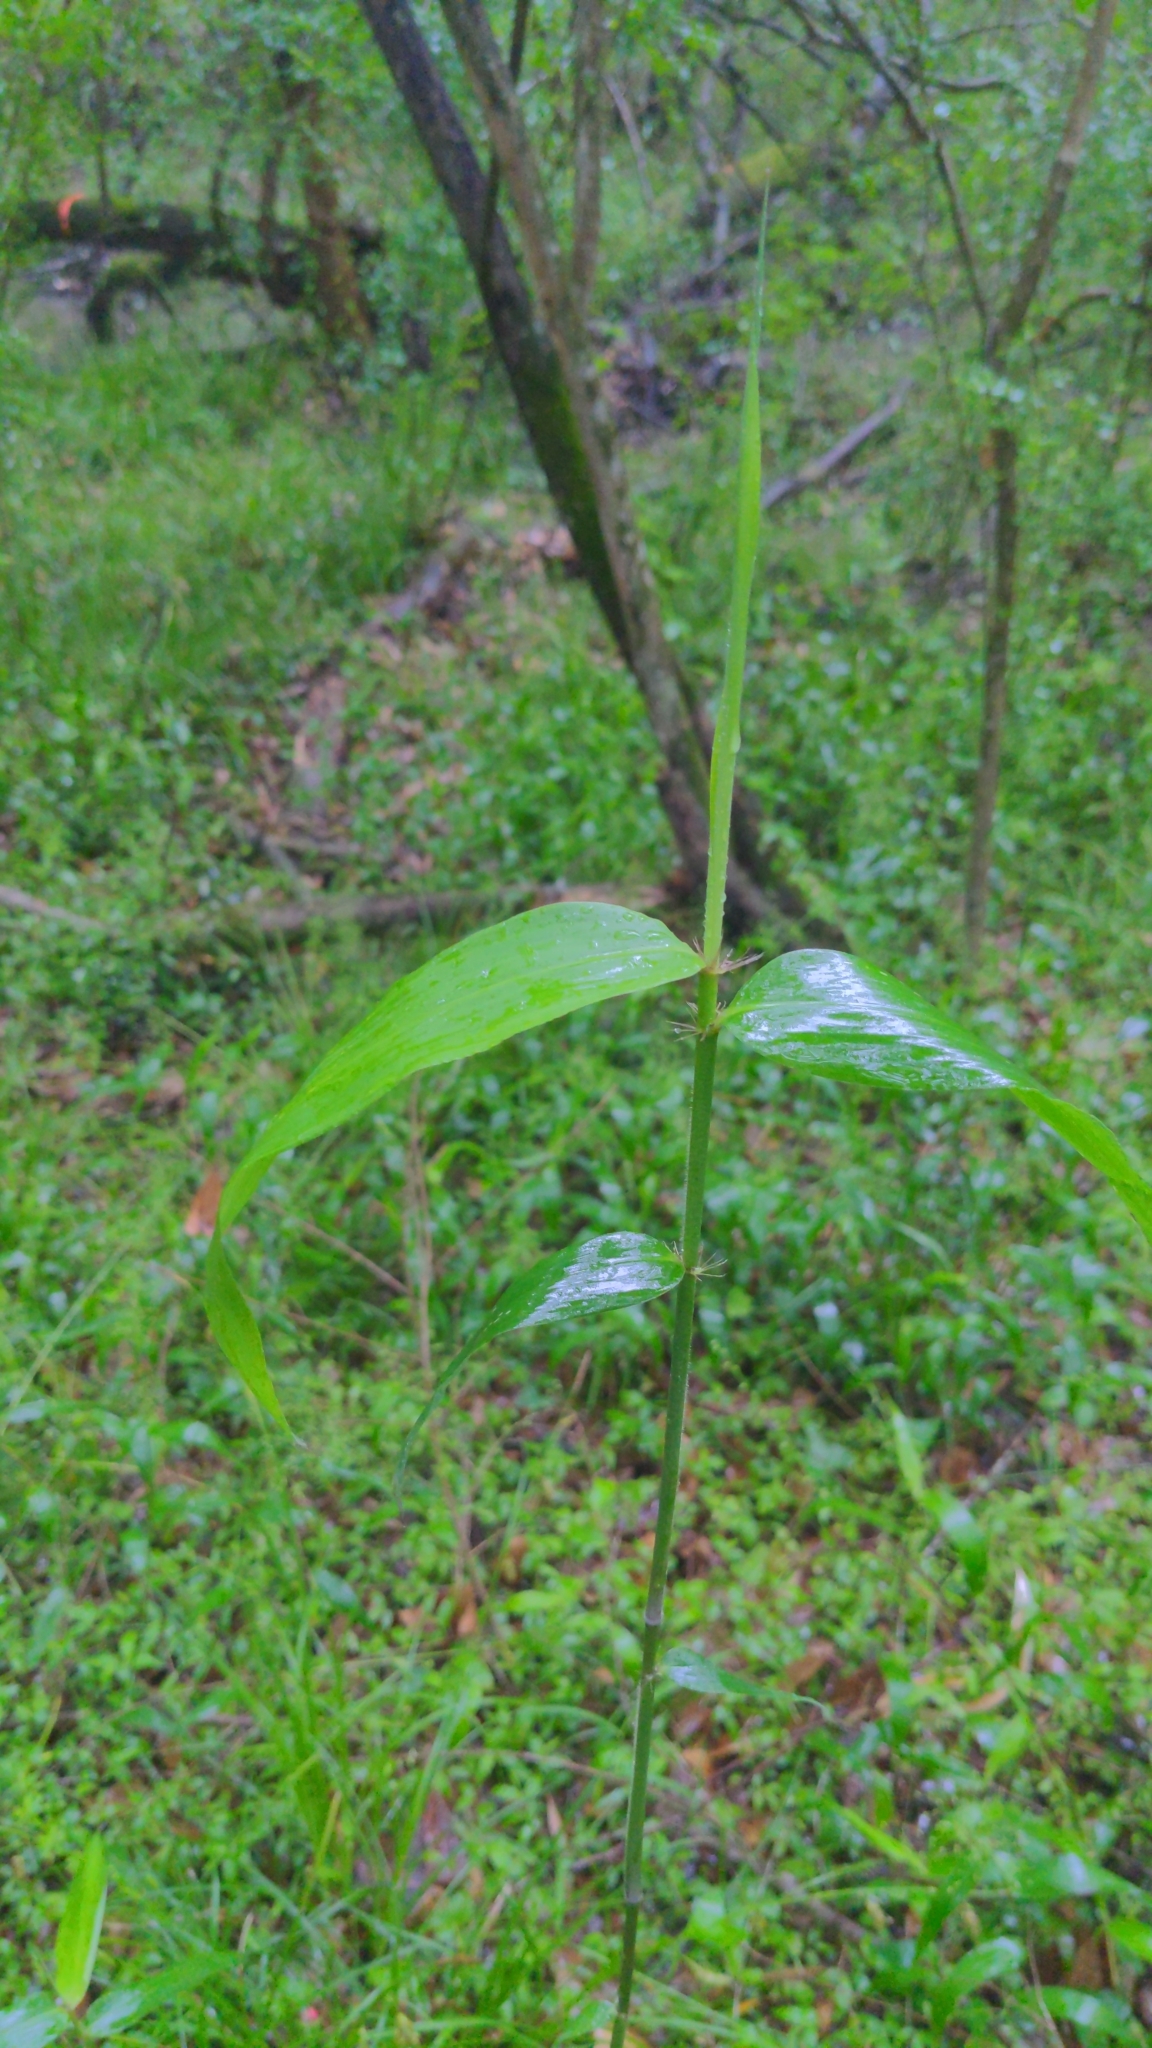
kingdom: Plantae
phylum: Tracheophyta
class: Liliopsida
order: Poales
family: Poaceae
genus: Arundinaria
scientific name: Arundinaria gigantea
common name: Giant cane
